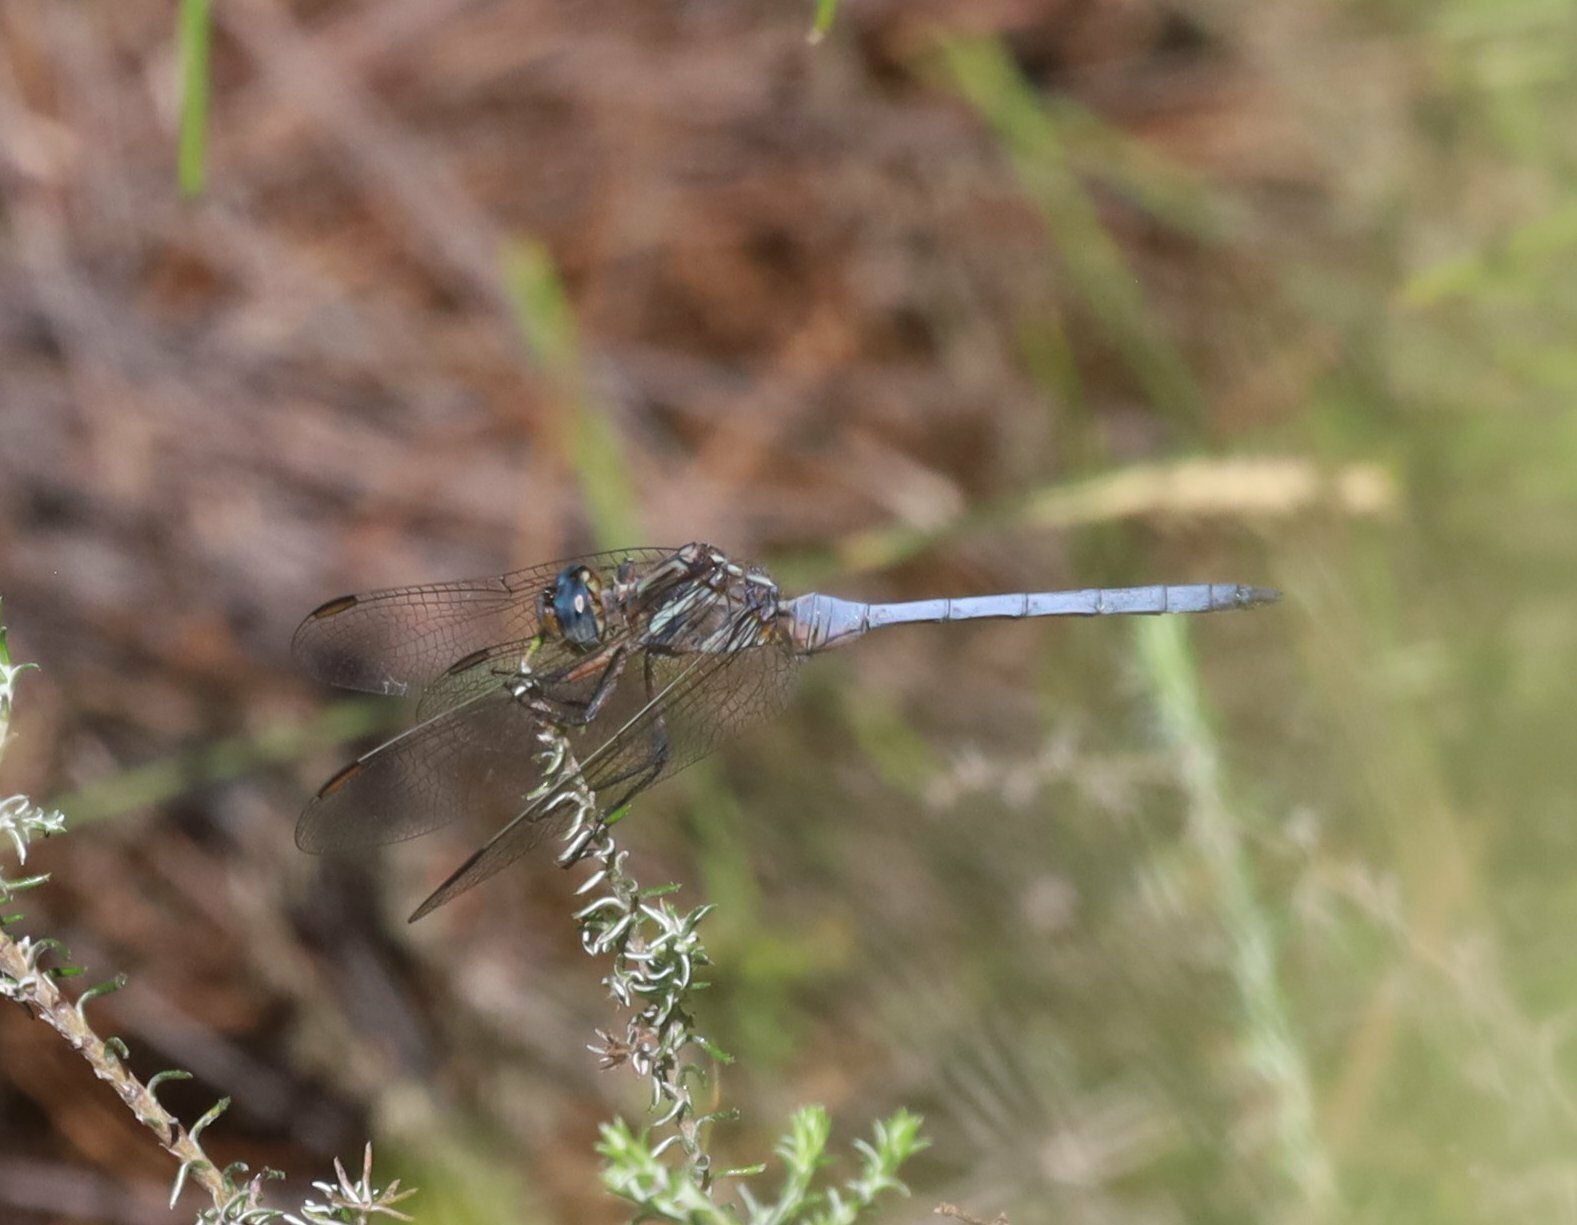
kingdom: Animalia
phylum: Arthropoda
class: Insecta
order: Odonata
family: Libellulidae
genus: Orthetrum
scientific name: Orthetrum julia
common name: Julia skimmer
